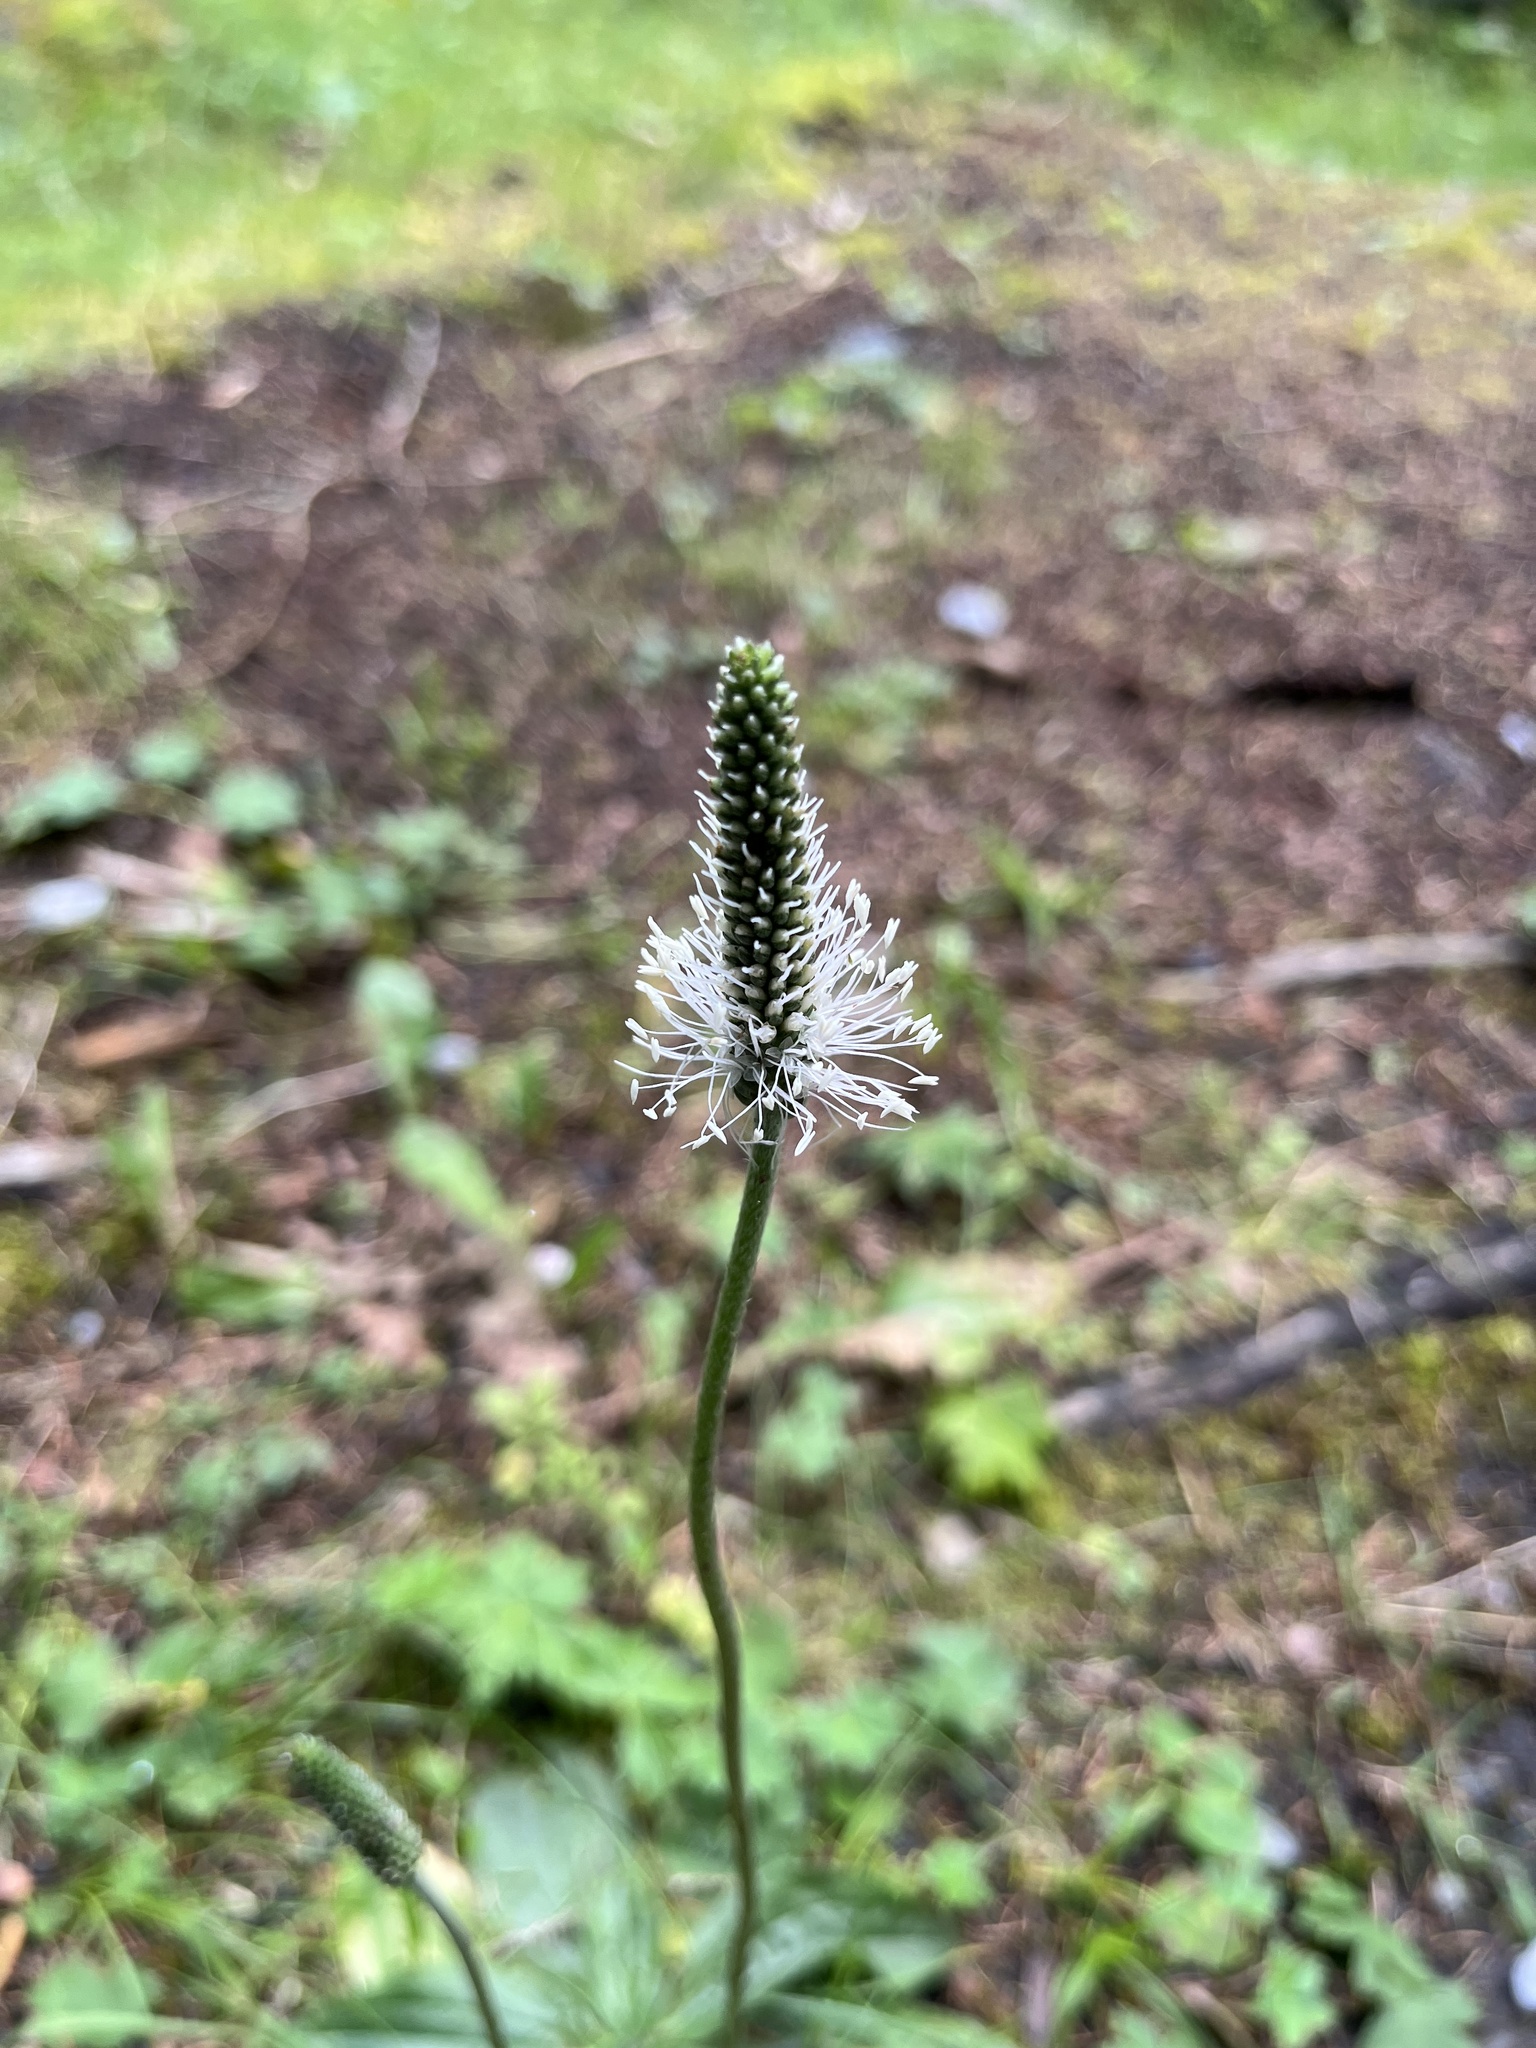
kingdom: Plantae
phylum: Tracheophyta
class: Magnoliopsida
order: Lamiales
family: Plantaginaceae
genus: Plantago
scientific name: Plantago media
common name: Hoary plantain
